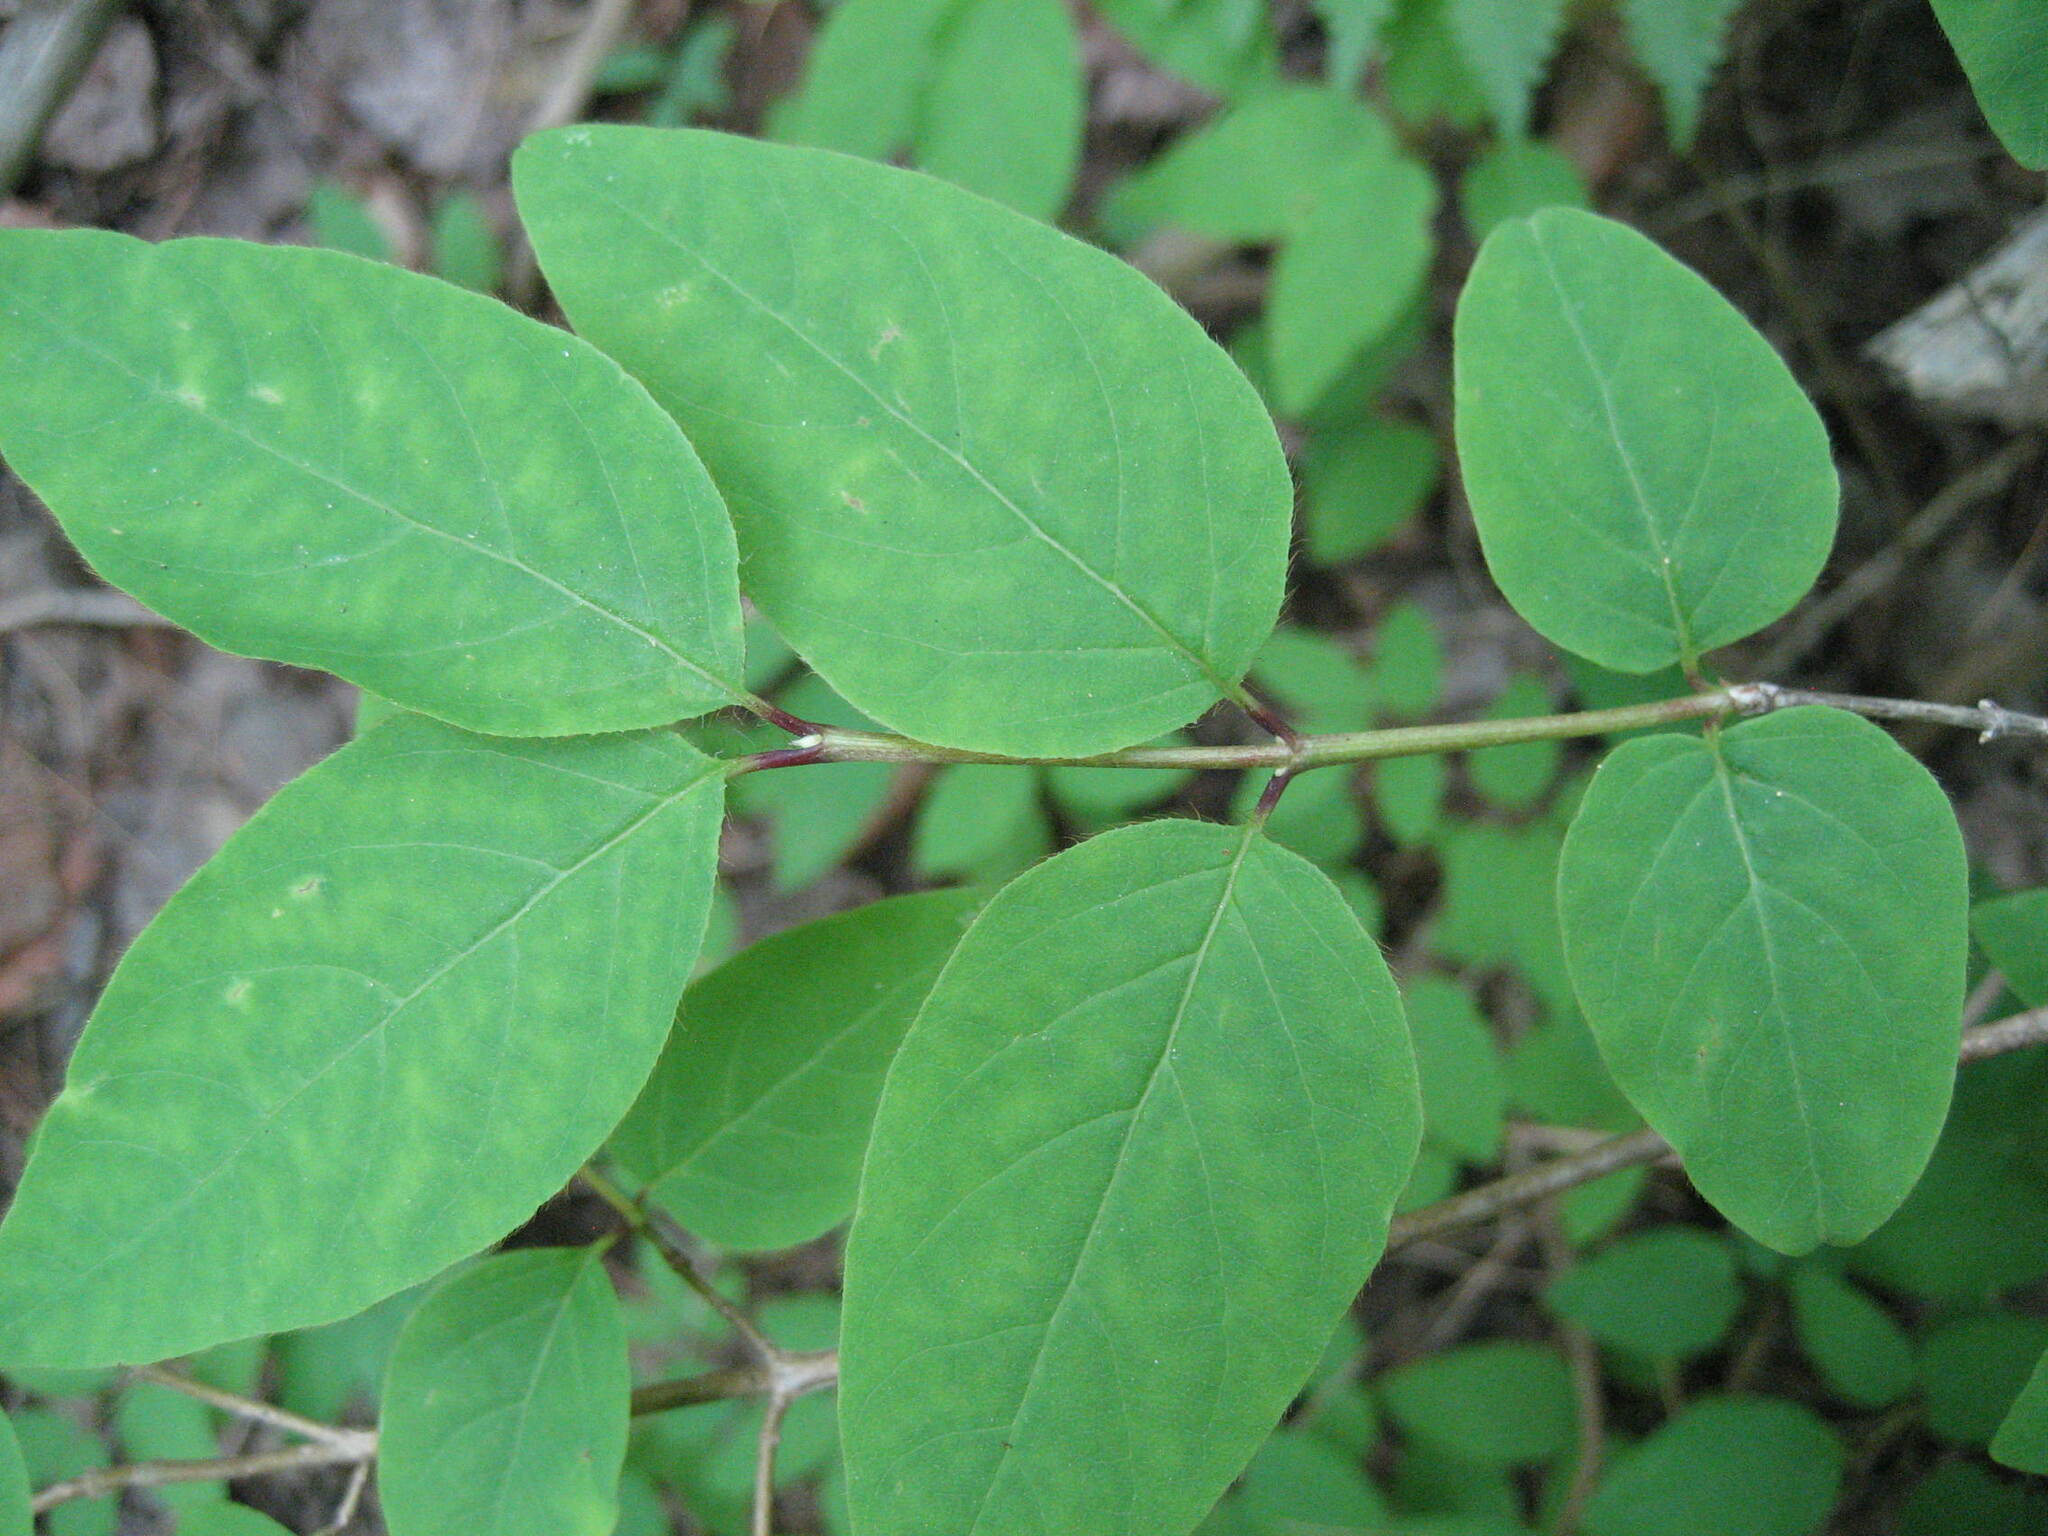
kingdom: Plantae
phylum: Tracheophyta
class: Magnoliopsida
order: Dipsacales
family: Caprifoliaceae
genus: Lonicera
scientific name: Lonicera canadensis
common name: American fly-honeysuckle
